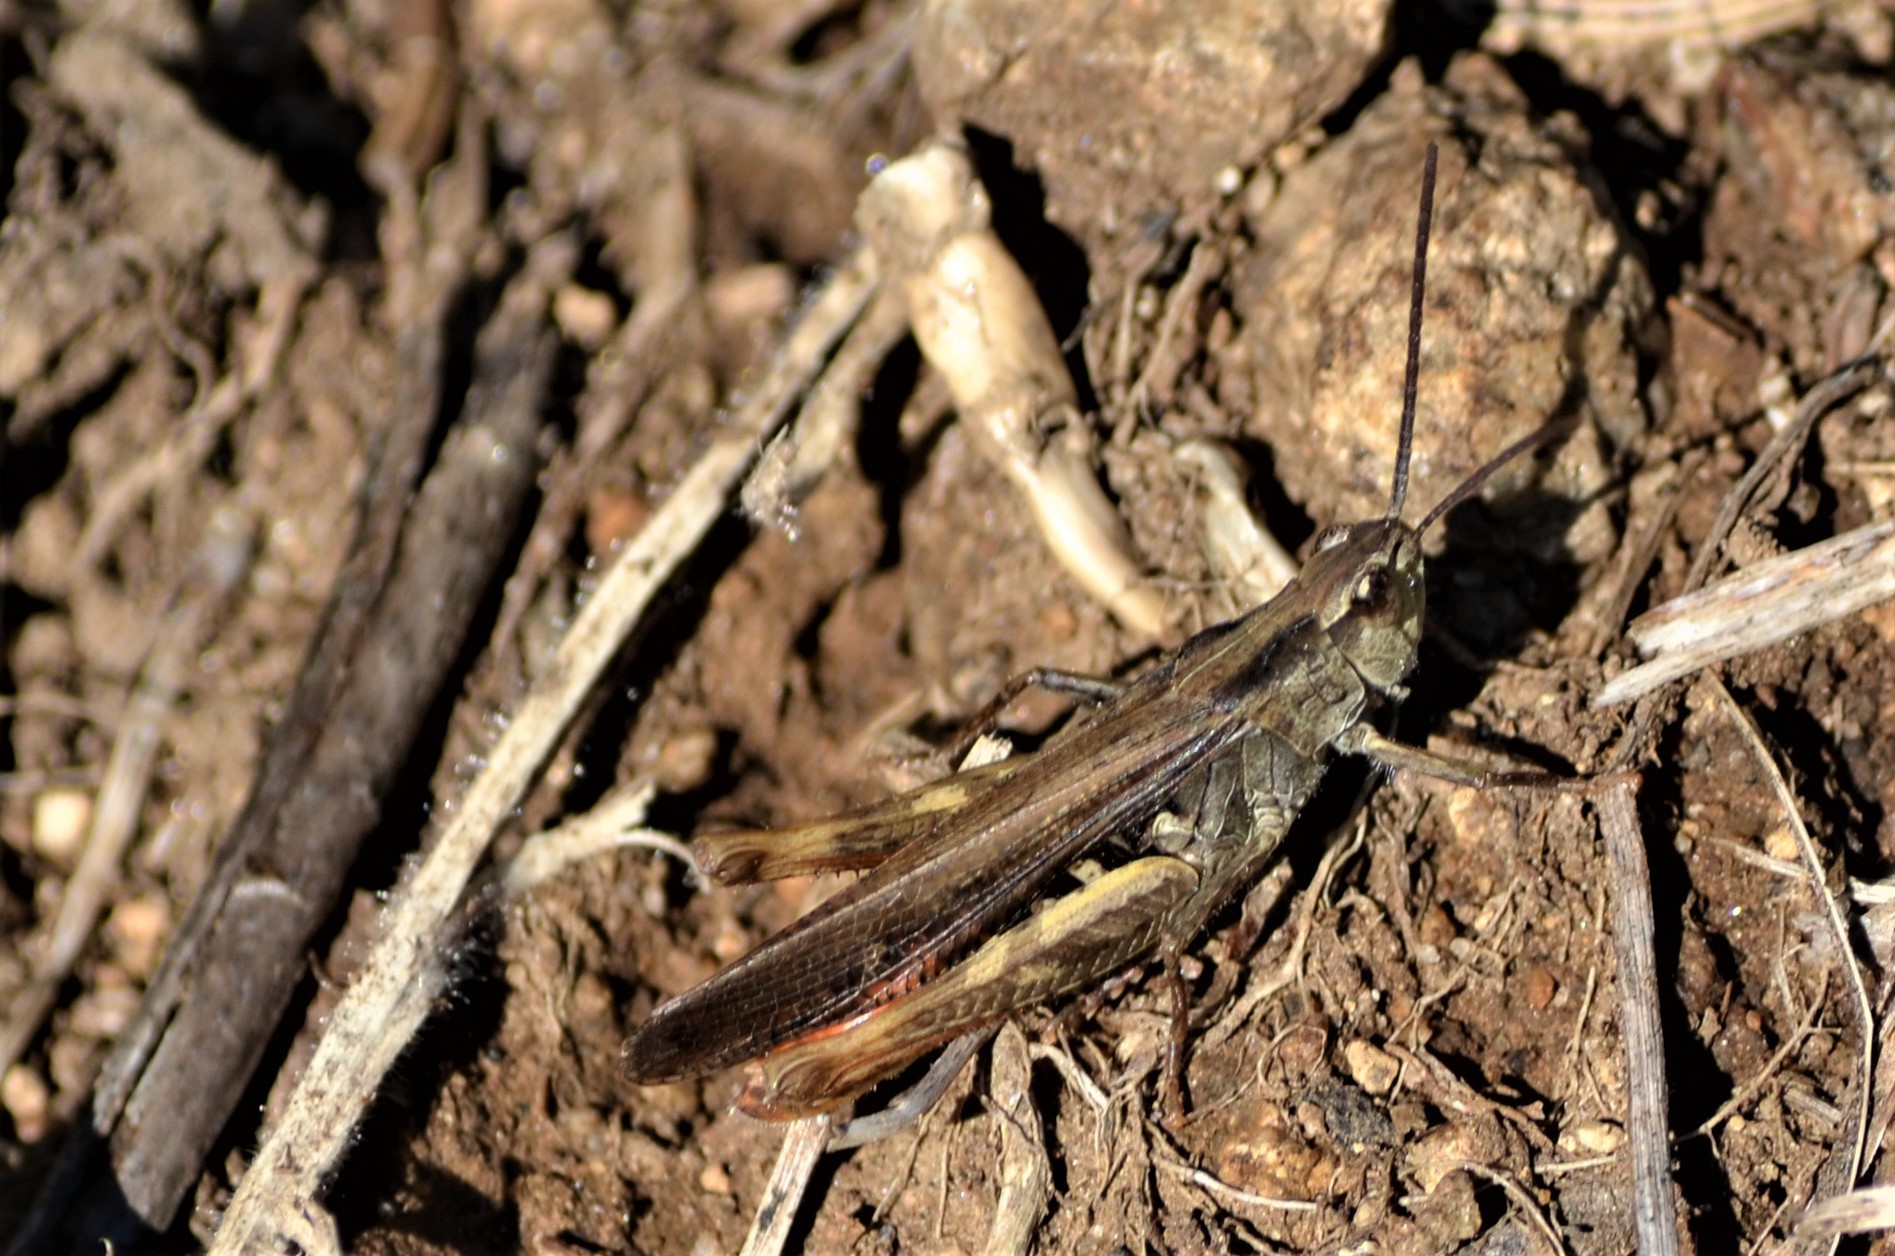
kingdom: Animalia
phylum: Arthropoda
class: Insecta
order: Orthoptera
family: Acrididae
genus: Chorthippus
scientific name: Chorthippus brunneus
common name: Field grasshopper
